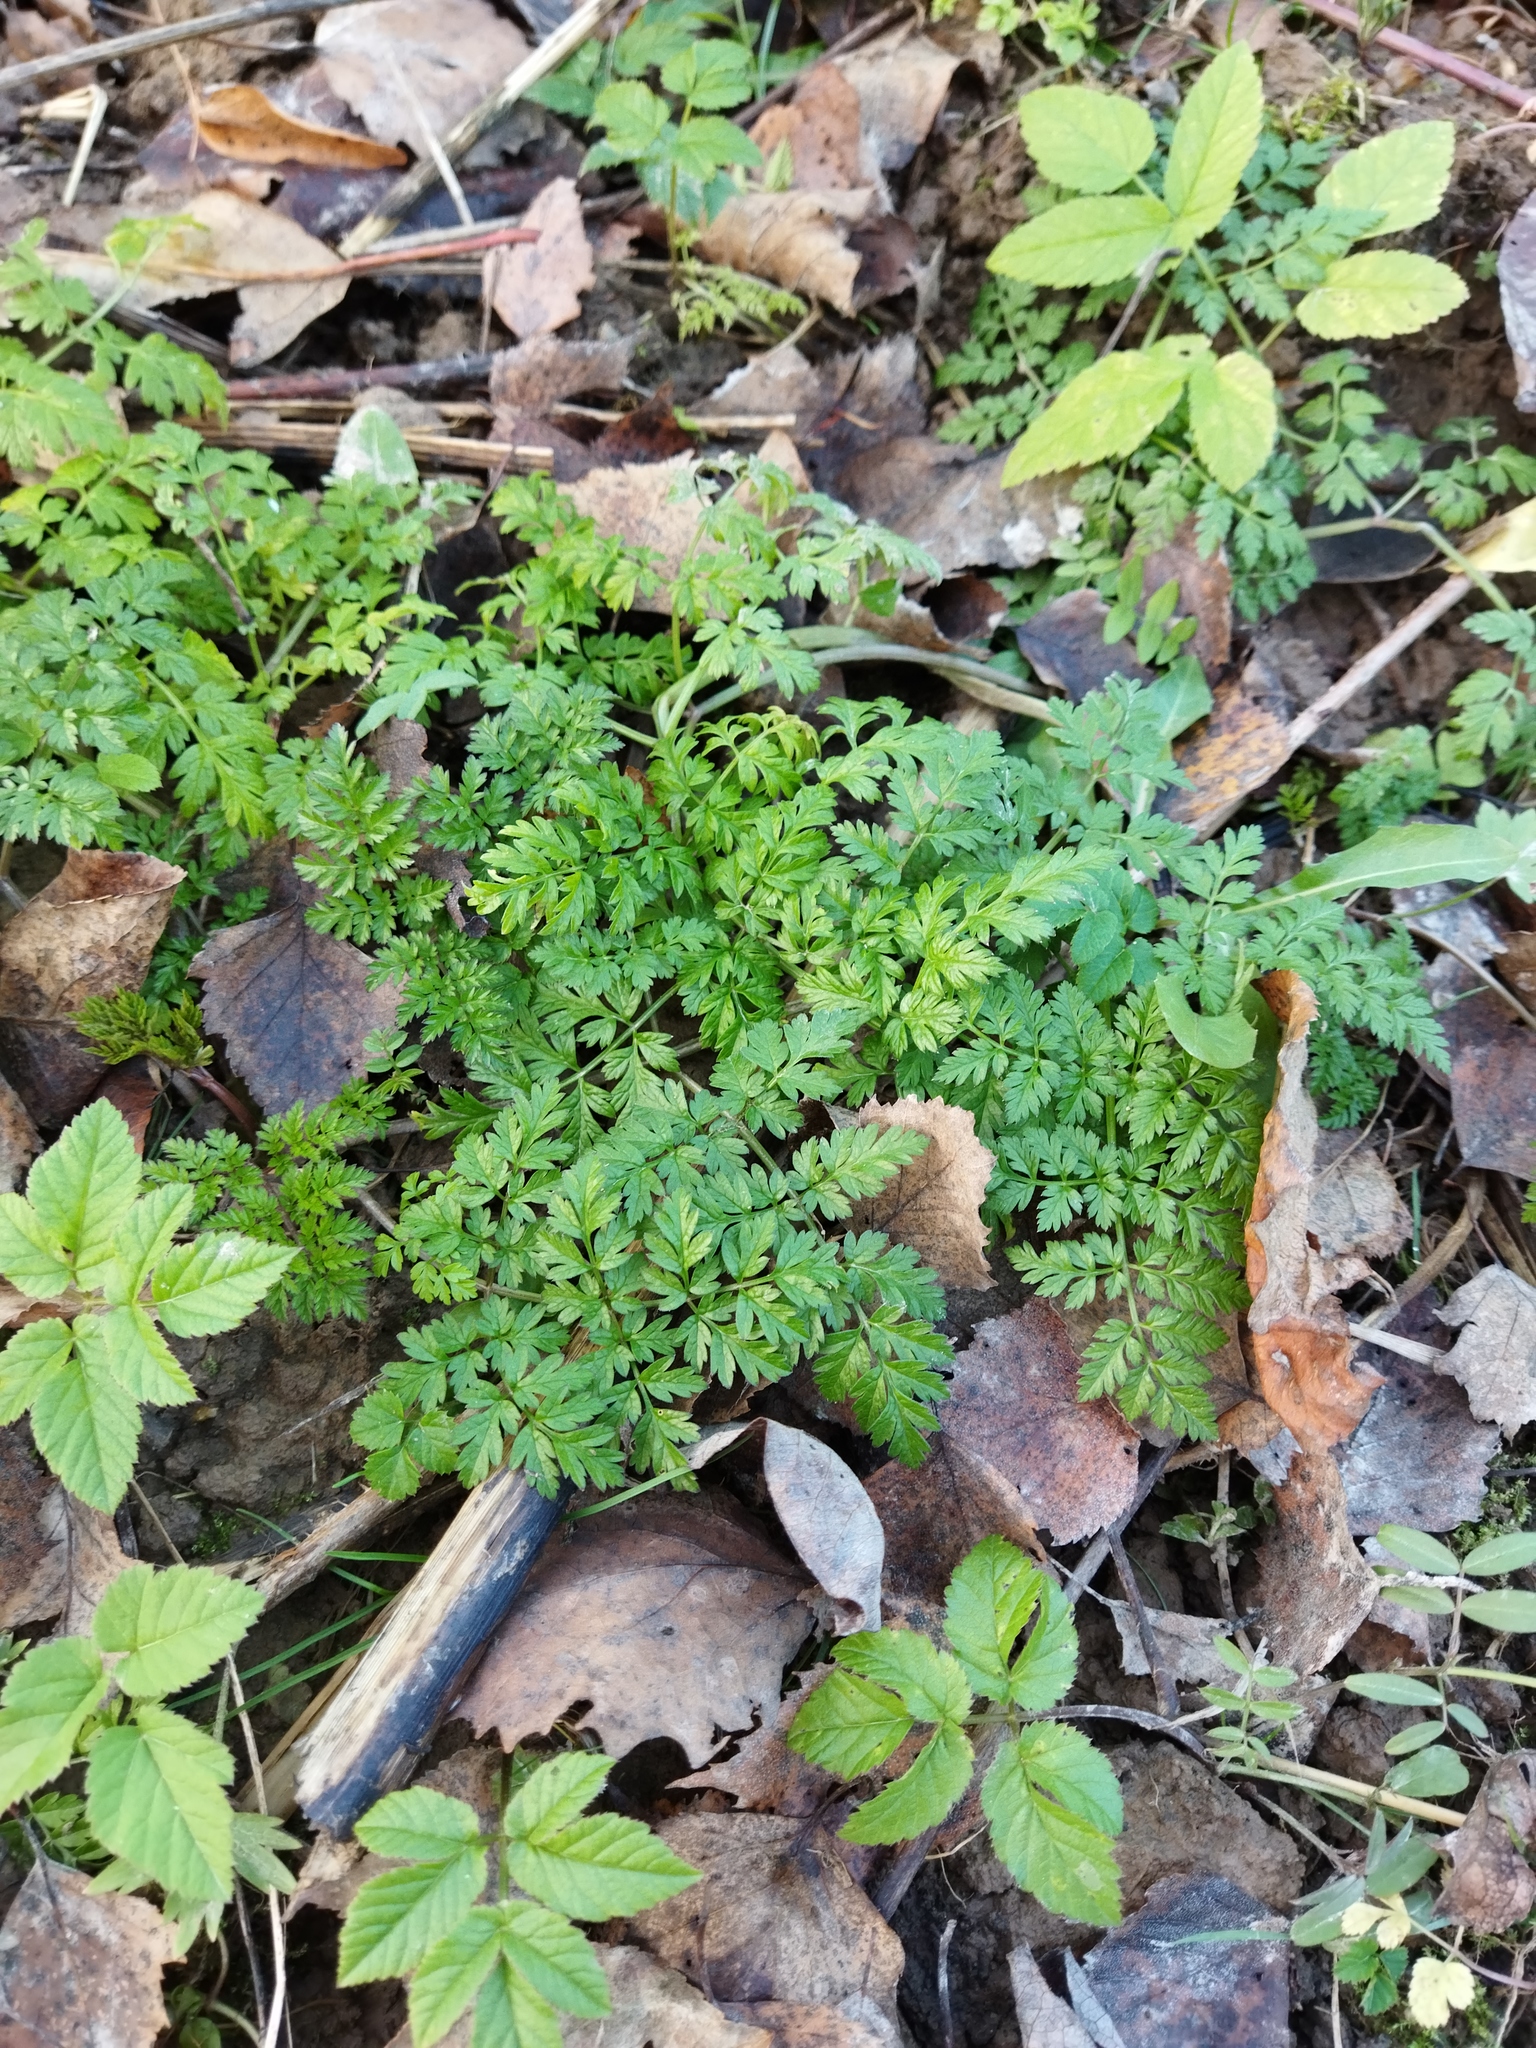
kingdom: Plantae
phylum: Tracheophyta
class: Magnoliopsida
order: Apiales
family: Apiaceae
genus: Anthriscus
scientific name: Anthriscus sylvestris
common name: Cow parsley
